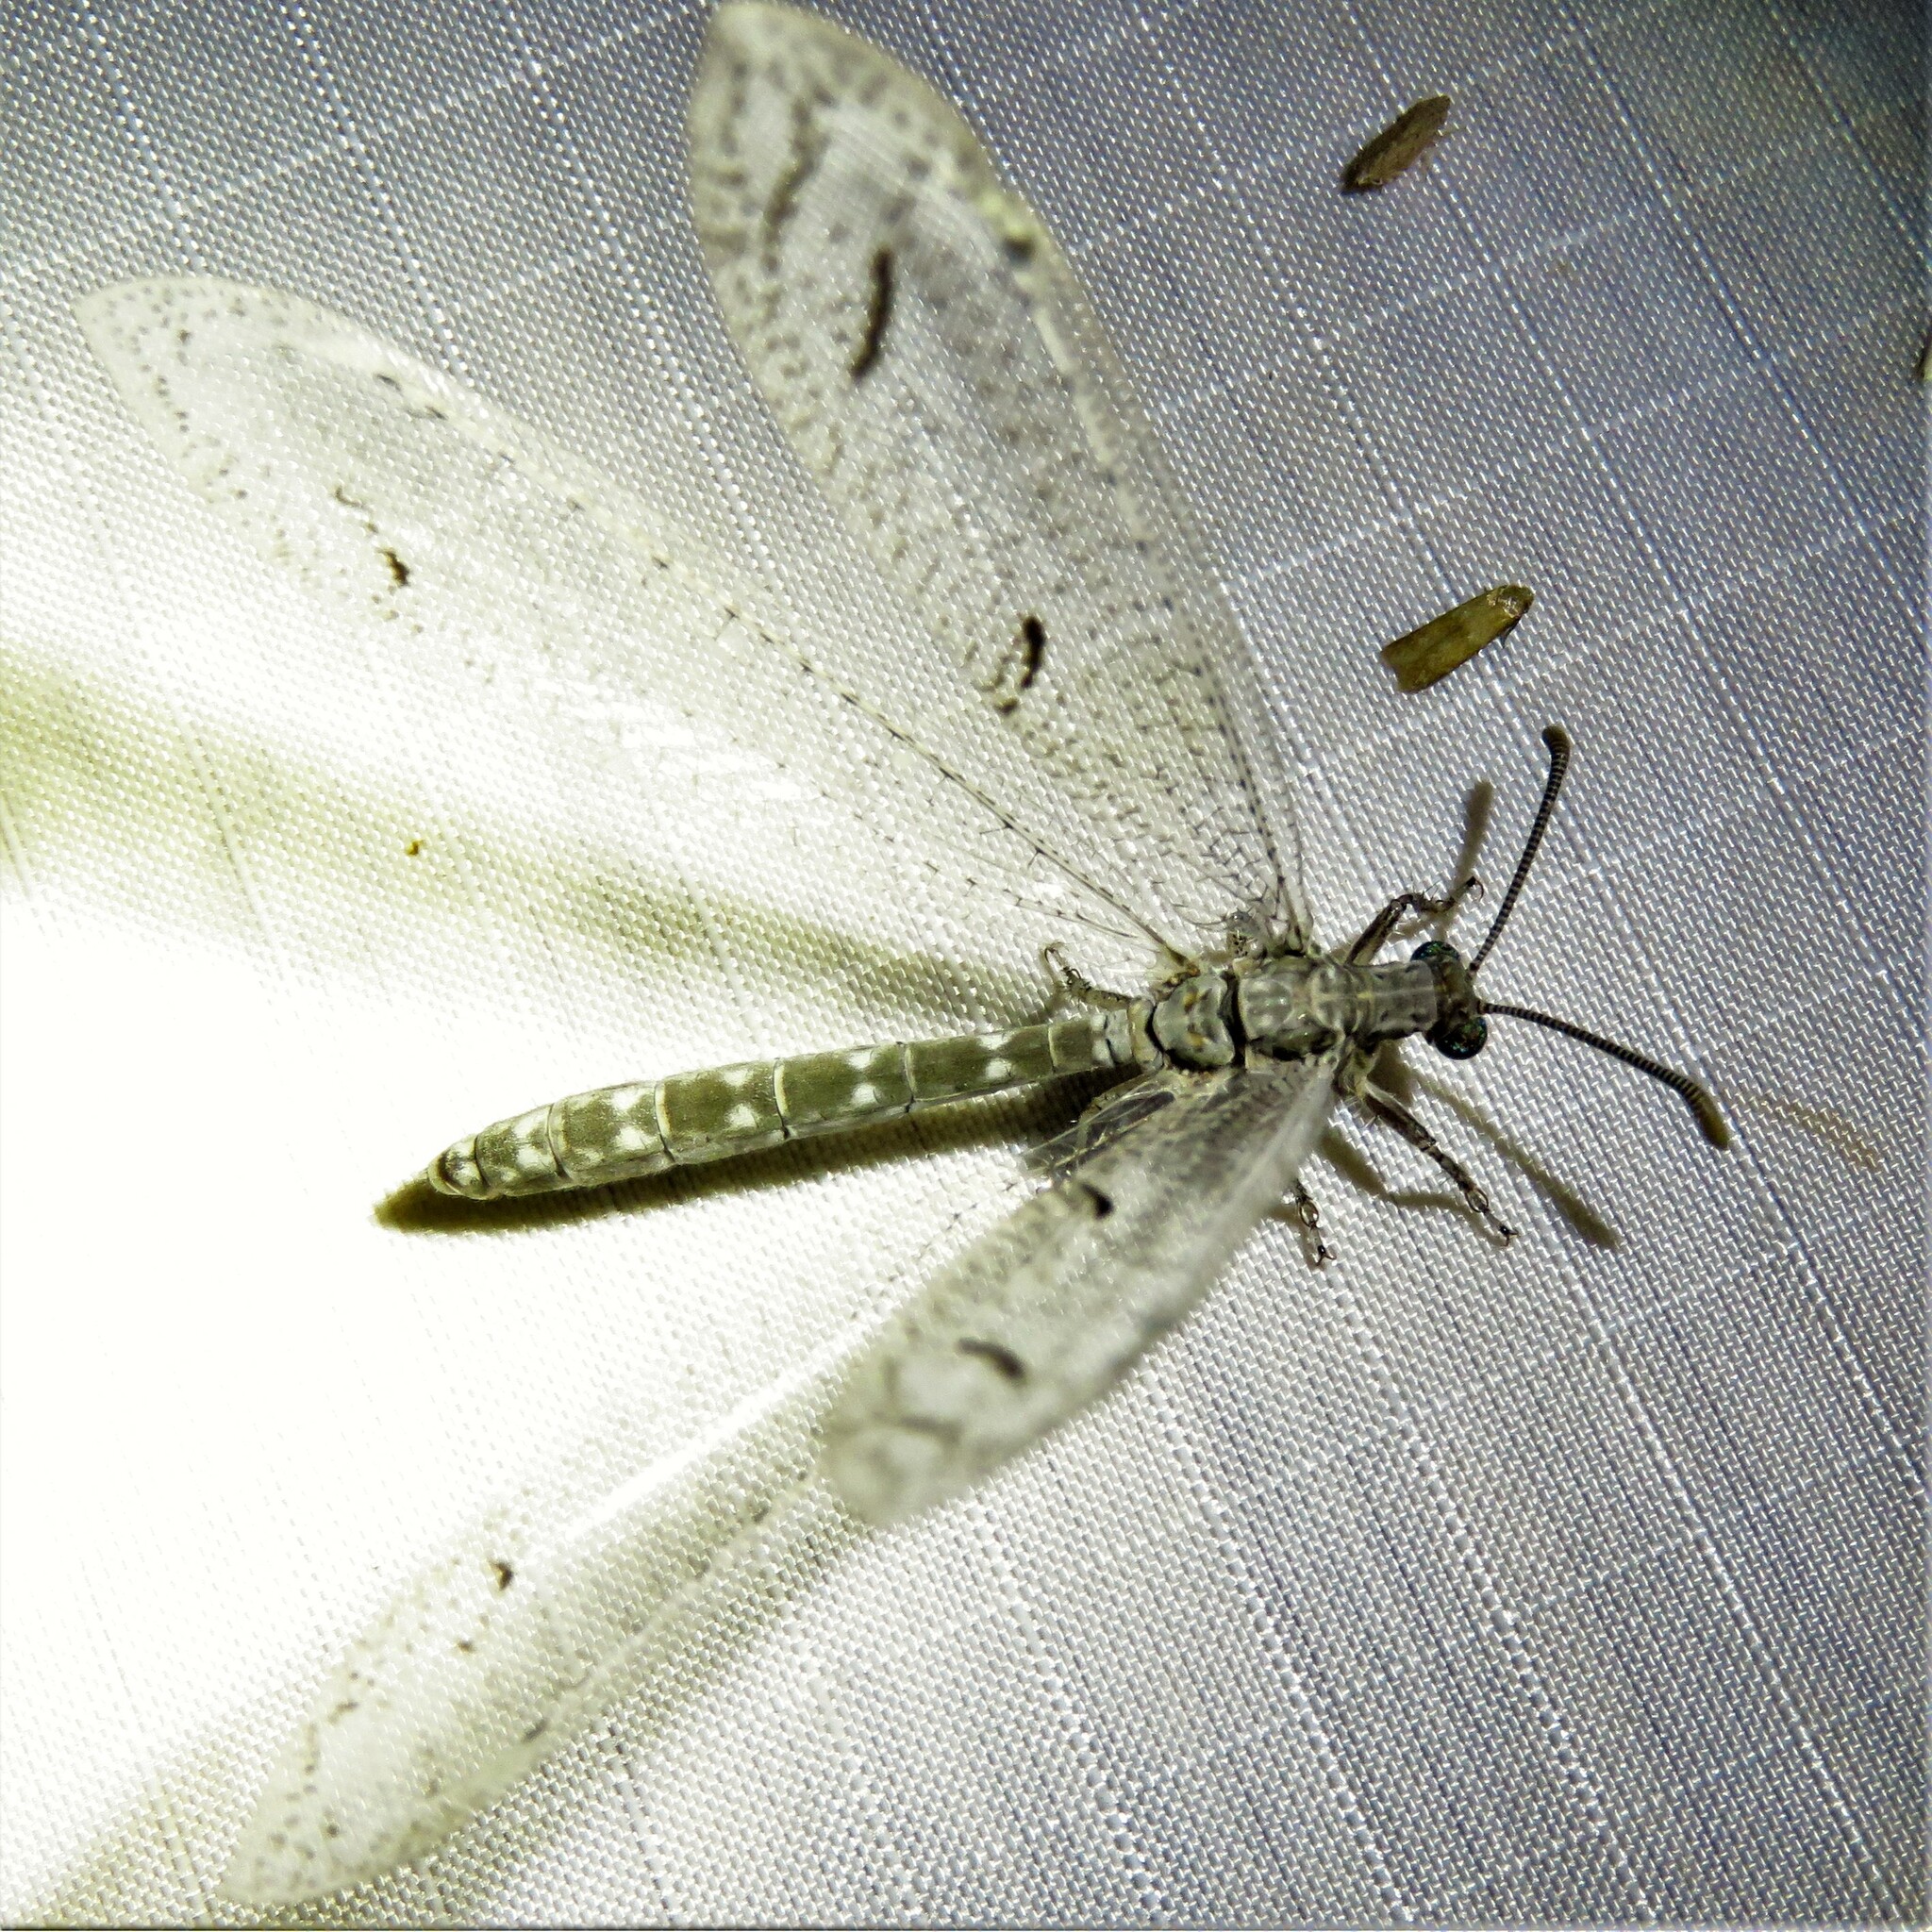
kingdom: Animalia
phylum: Arthropoda
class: Insecta
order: Neuroptera
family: Myrmeleontidae
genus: Euptilon
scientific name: Euptilon ornatum
